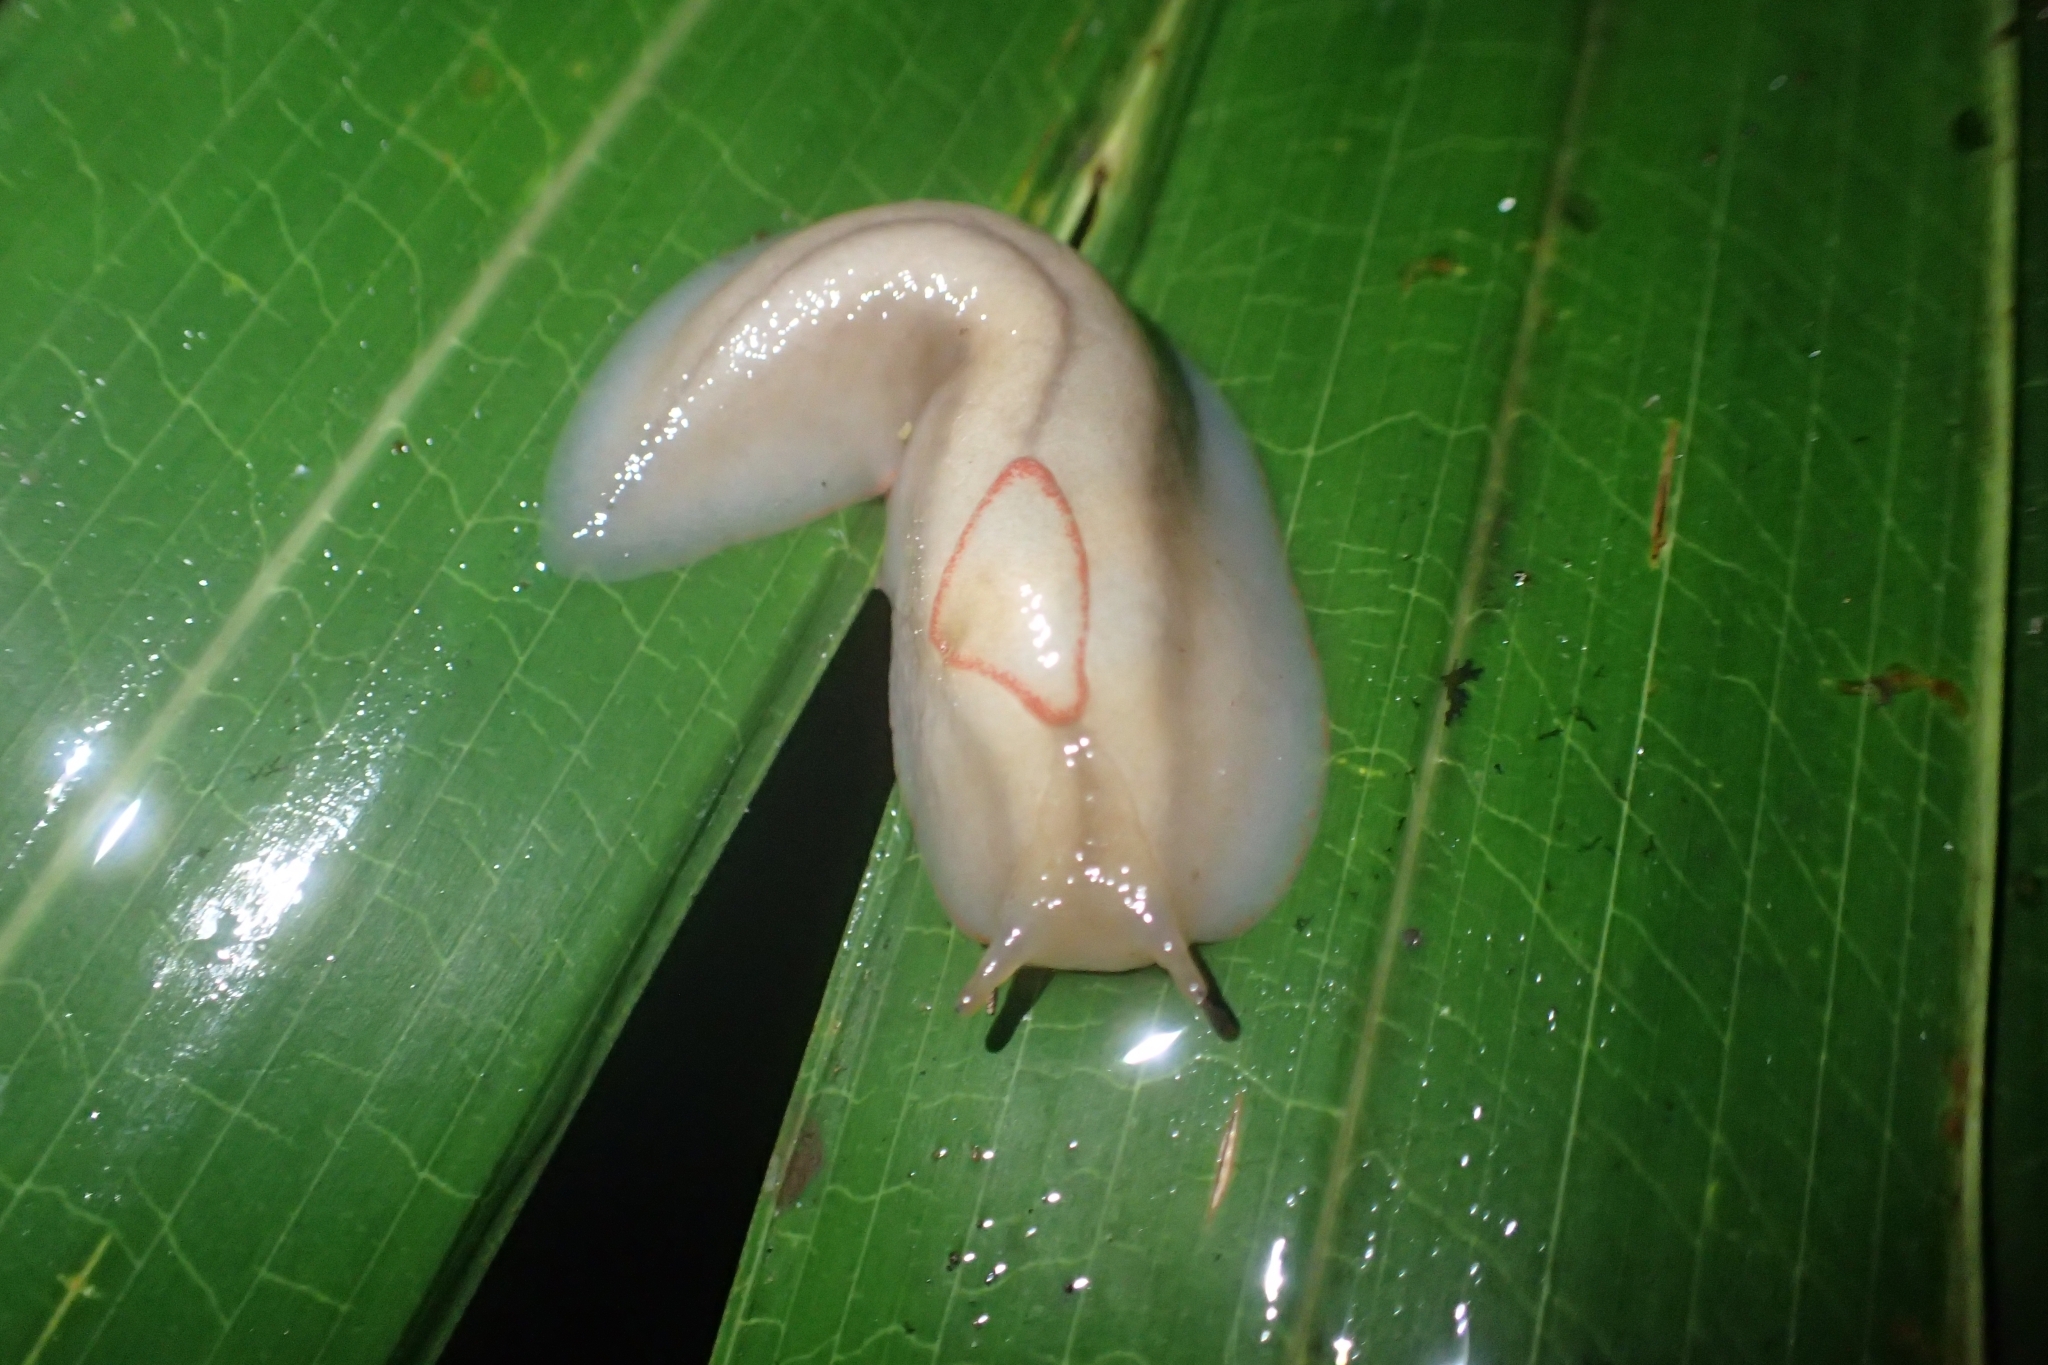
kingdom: Animalia
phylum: Mollusca
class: Gastropoda
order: Stylommatophora
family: Athoracophoridae
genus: Triboniophorus
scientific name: Triboniophorus graeffei
